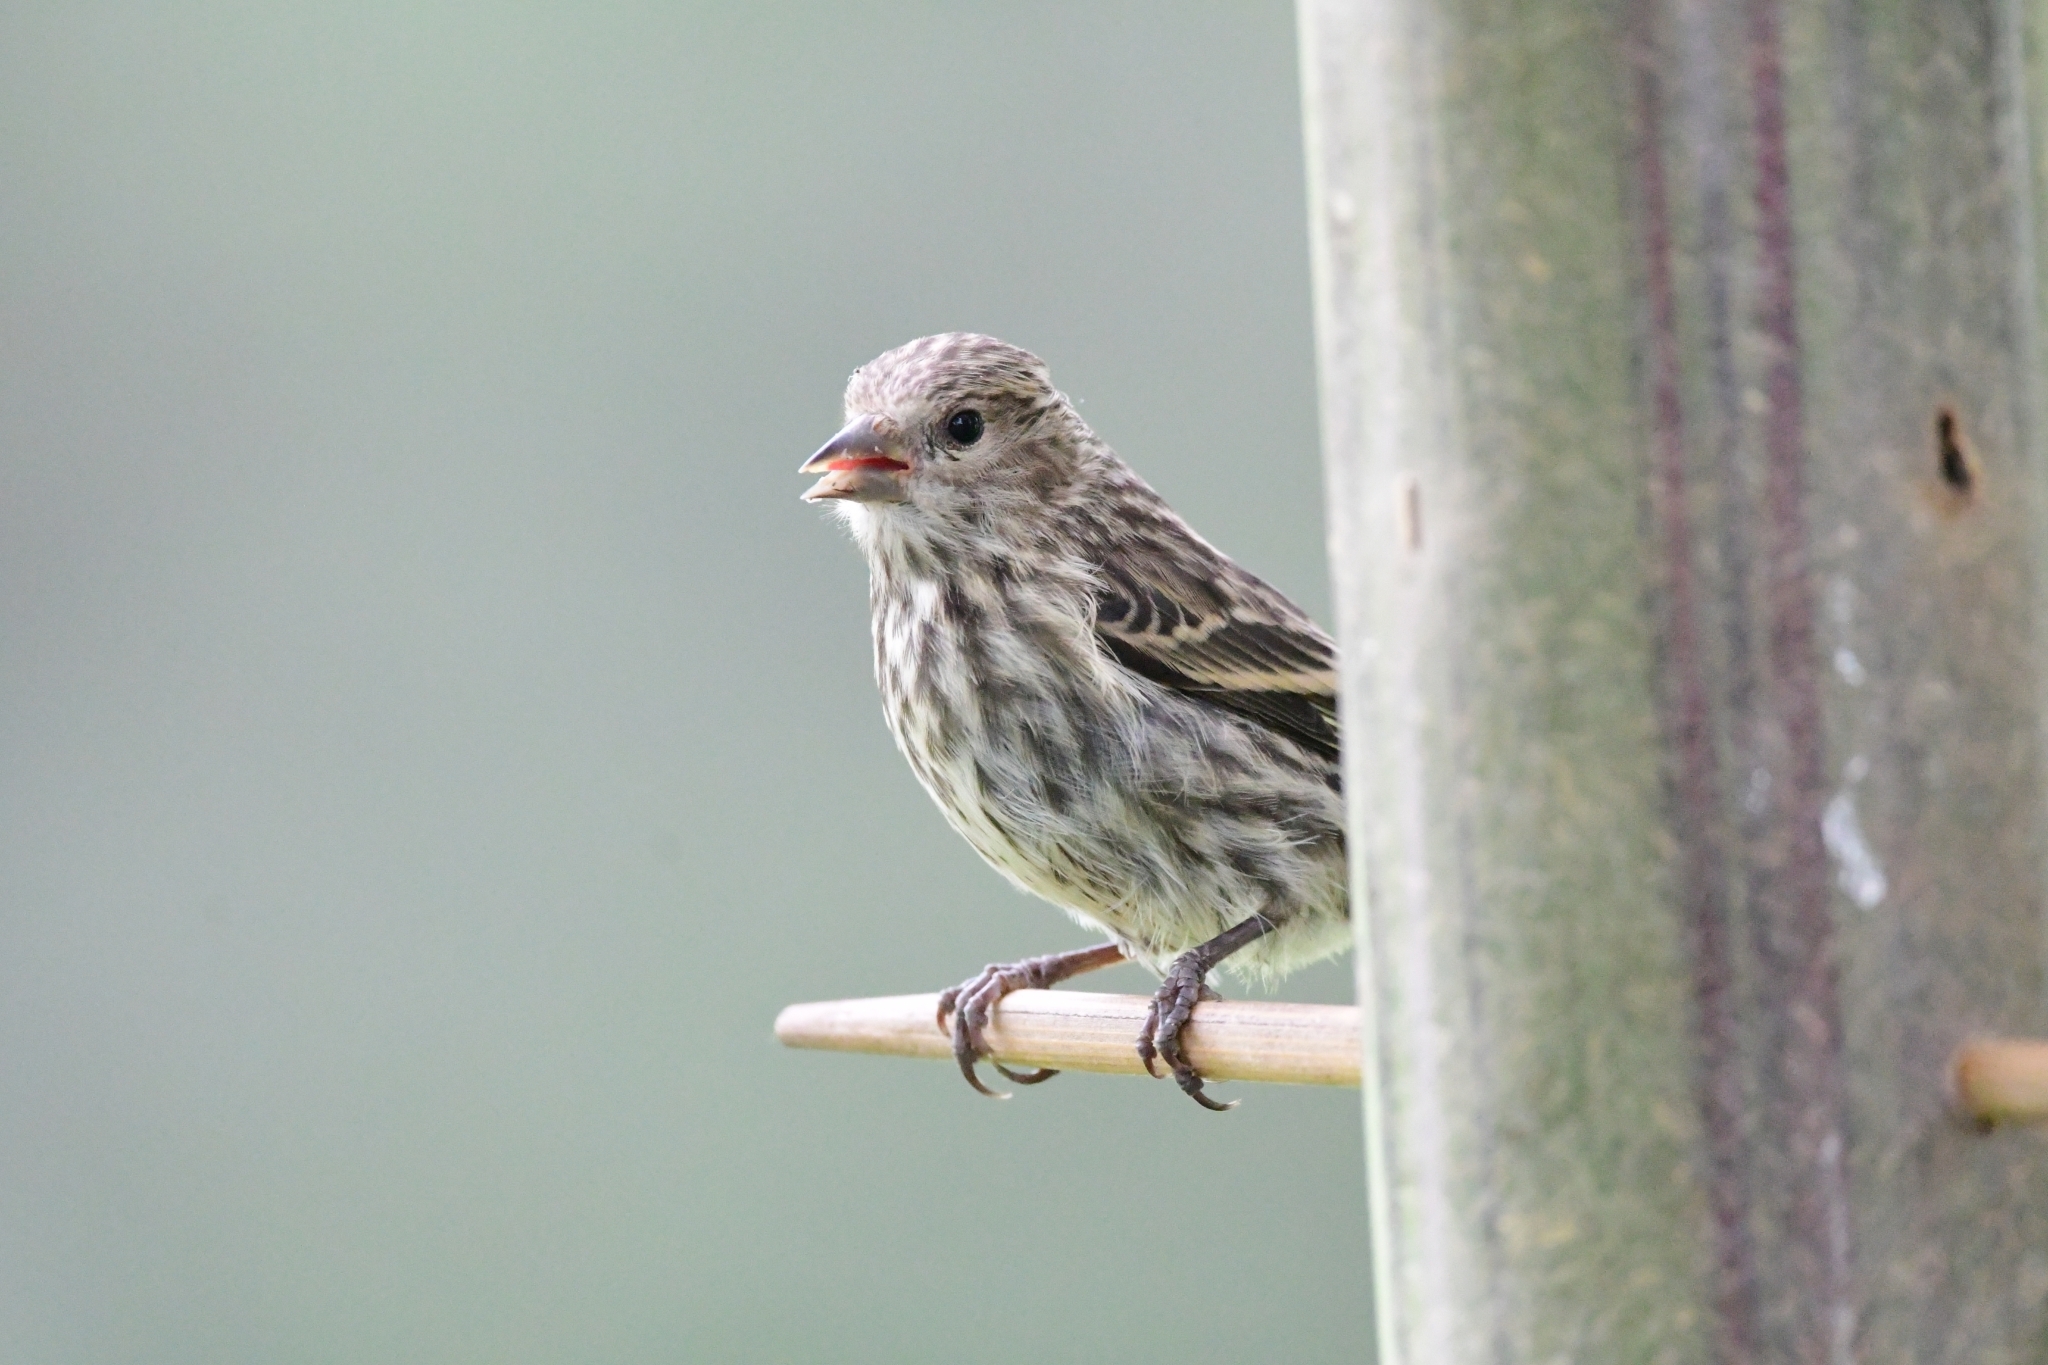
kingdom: Animalia
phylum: Chordata
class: Aves
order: Passeriformes
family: Fringillidae
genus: Spinus
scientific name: Spinus pinus
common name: Pine siskin
